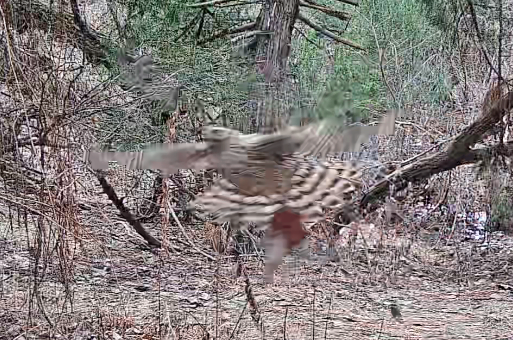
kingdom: Animalia
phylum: Chordata
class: Aves
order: Accipitriformes
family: Accipitridae
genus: Accipiter
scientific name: Accipiter gentilis
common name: Northern goshawk
